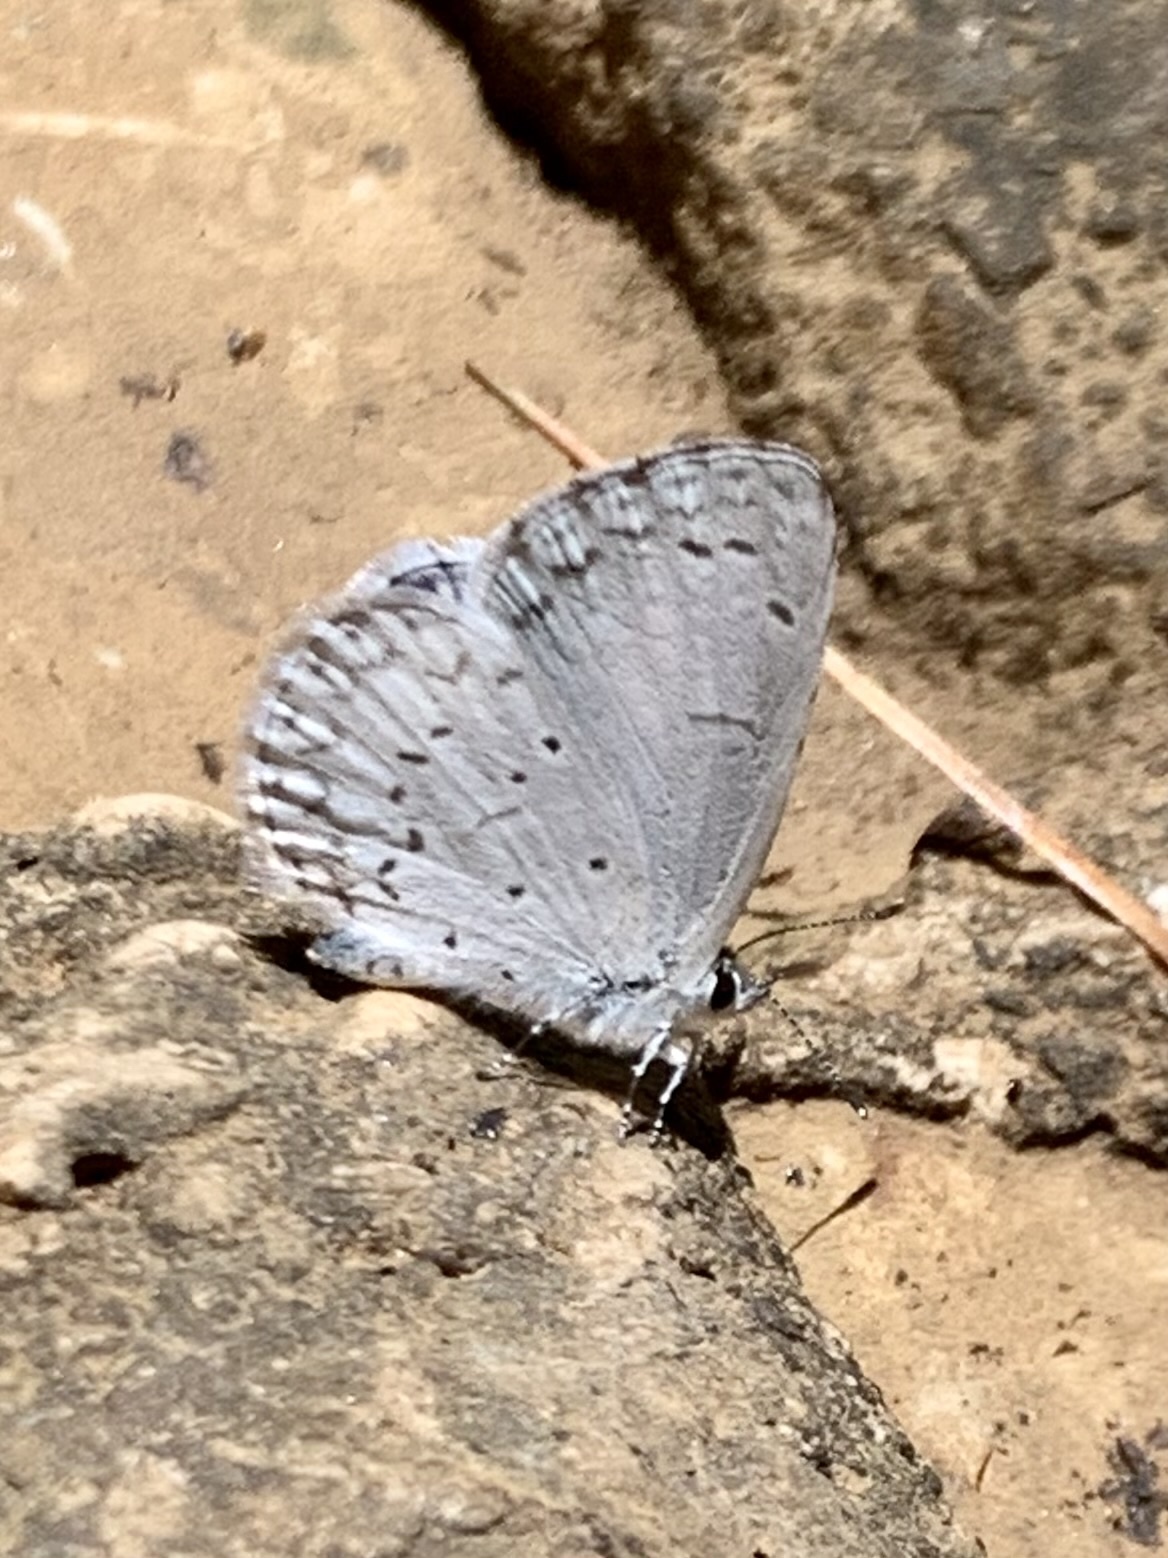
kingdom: Animalia
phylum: Arthropoda
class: Insecta
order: Lepidoptera
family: Lycaenidae
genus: Celastrina
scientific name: Celastrina ladon
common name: Spring azure
